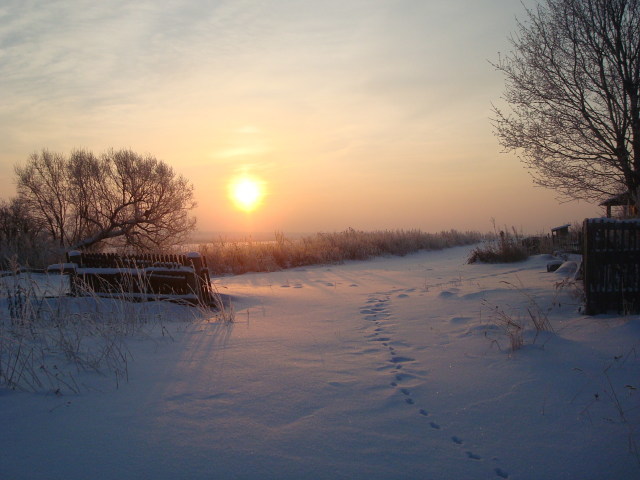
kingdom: Animalia
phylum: Chordata
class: Mammalia
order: Carnivora
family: Canidae
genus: Vulpes
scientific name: Vulpes vulpes
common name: Red fox
